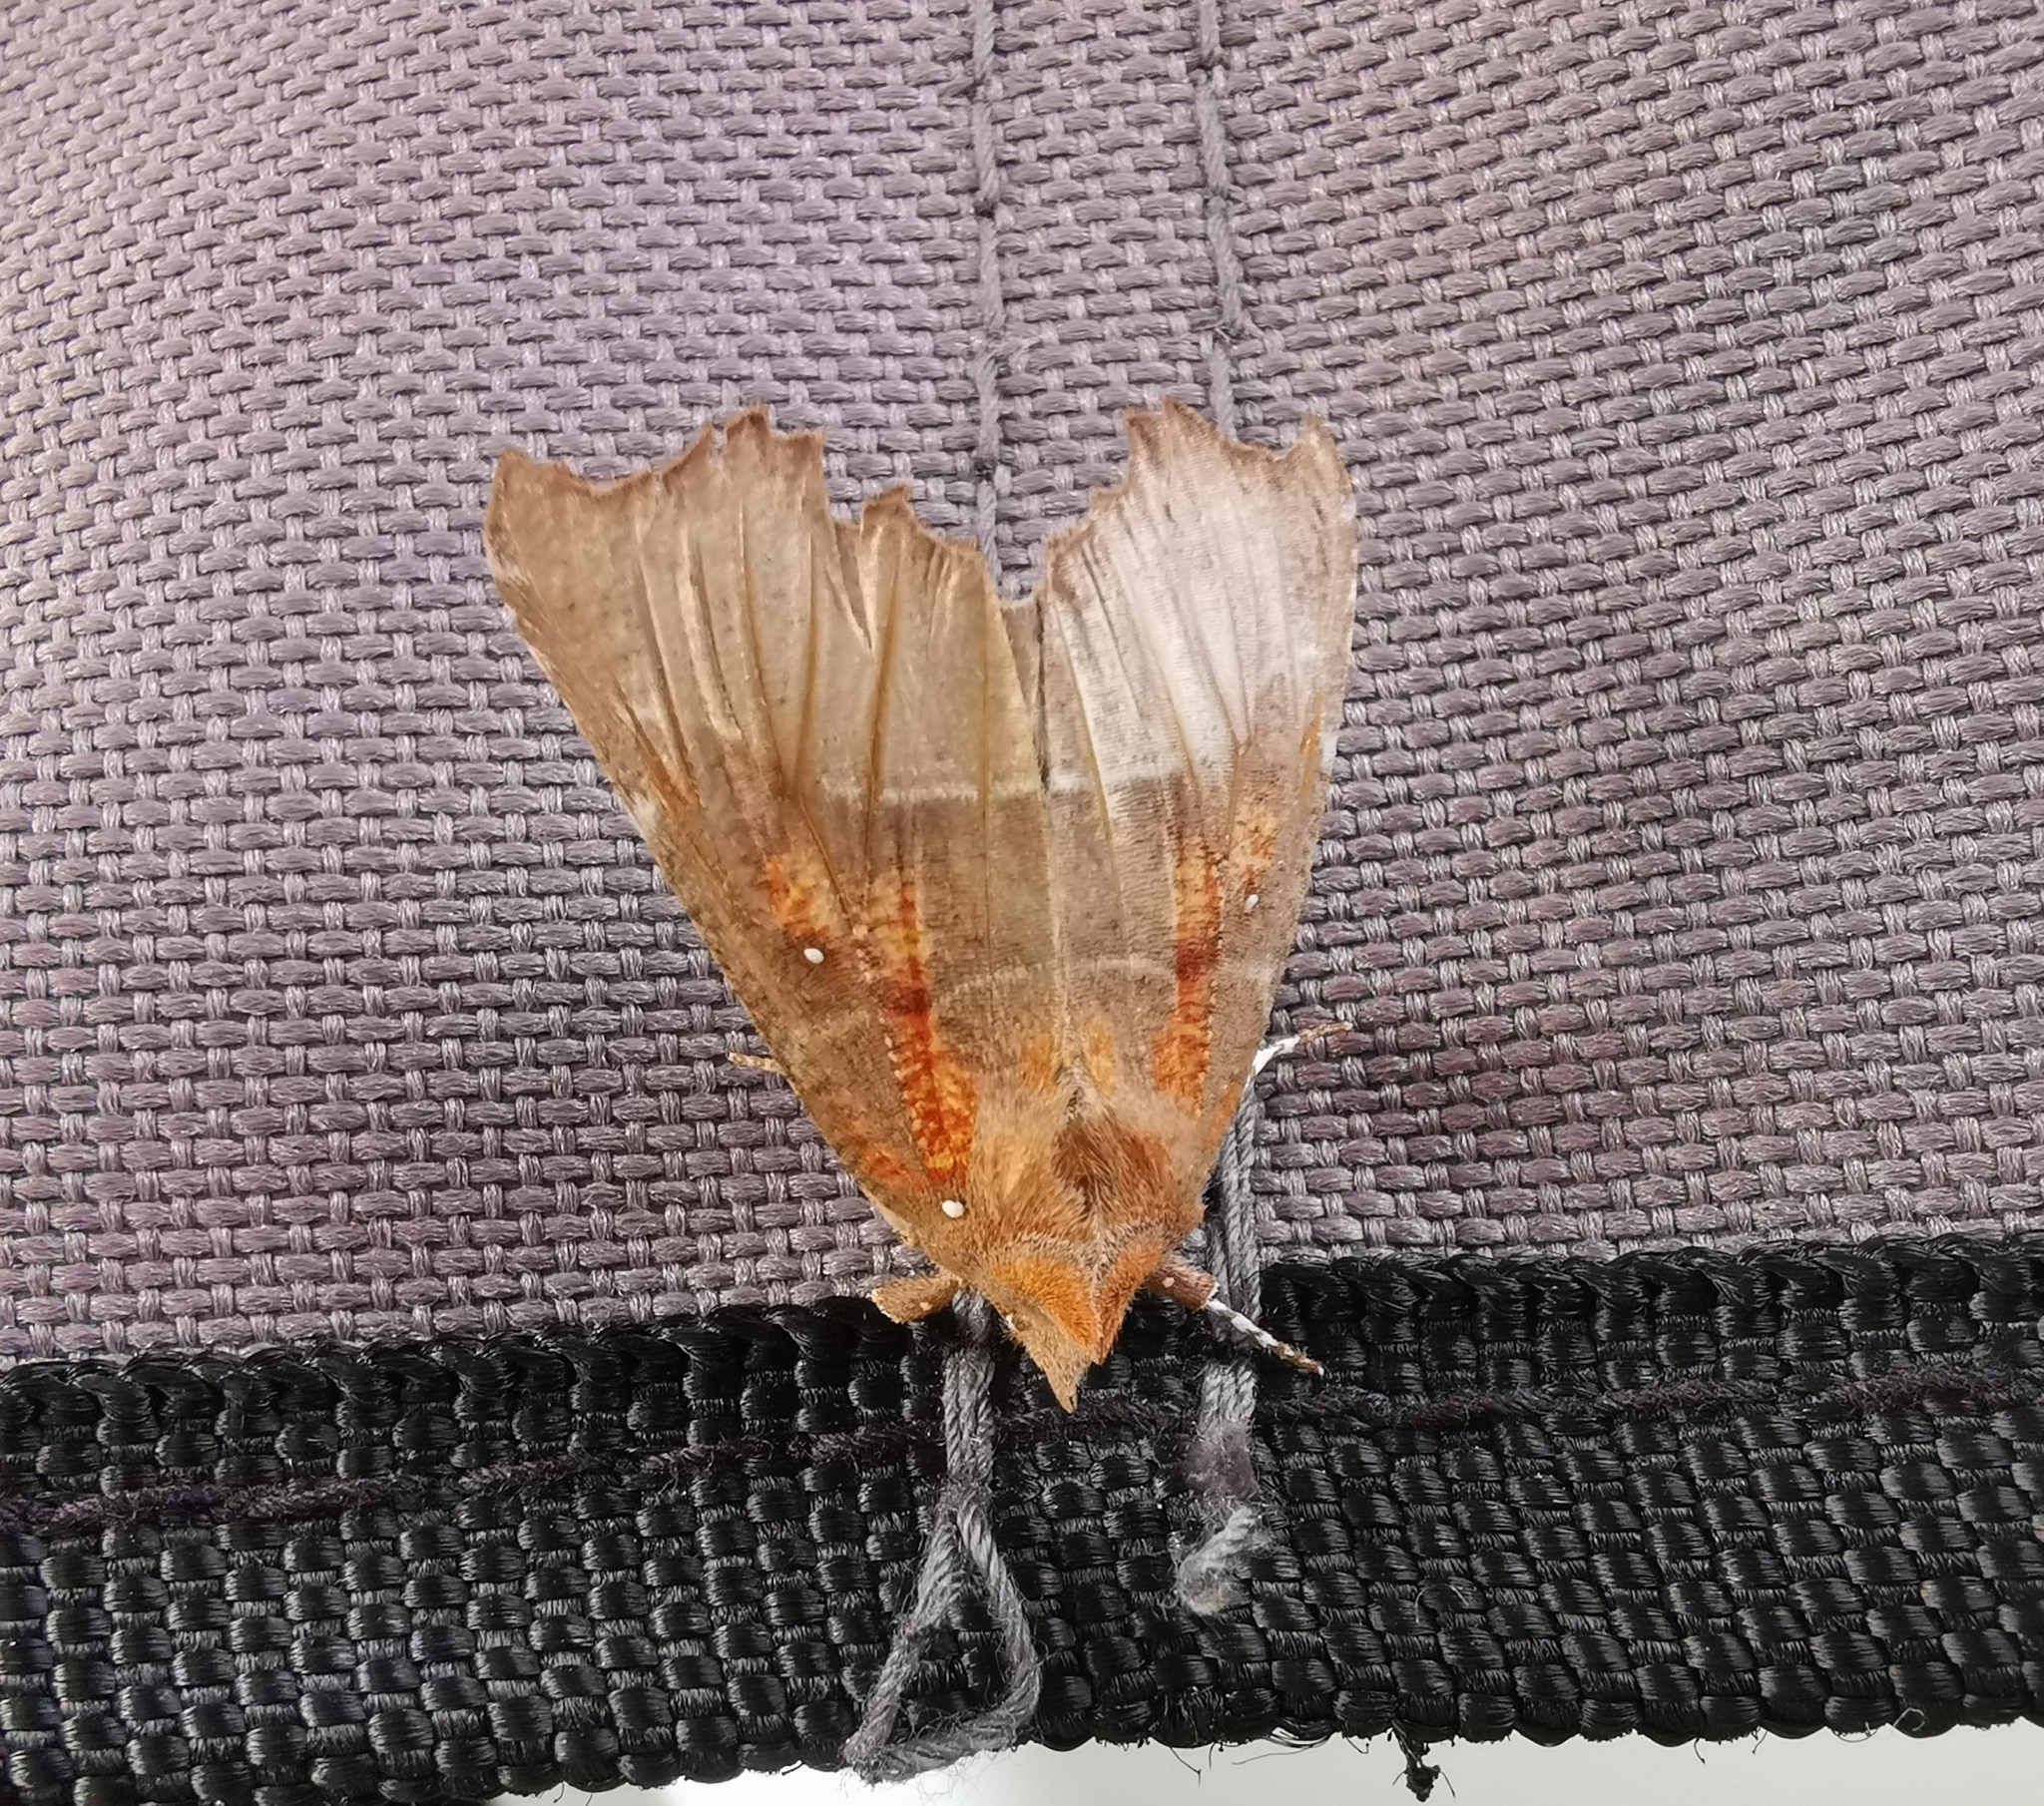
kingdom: Animalia
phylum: Arthropoda
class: Insecta
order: Lepidoptera
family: Erebidae
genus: Scoliopteryx
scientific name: Scoliopteryx libatrix
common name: Herald
